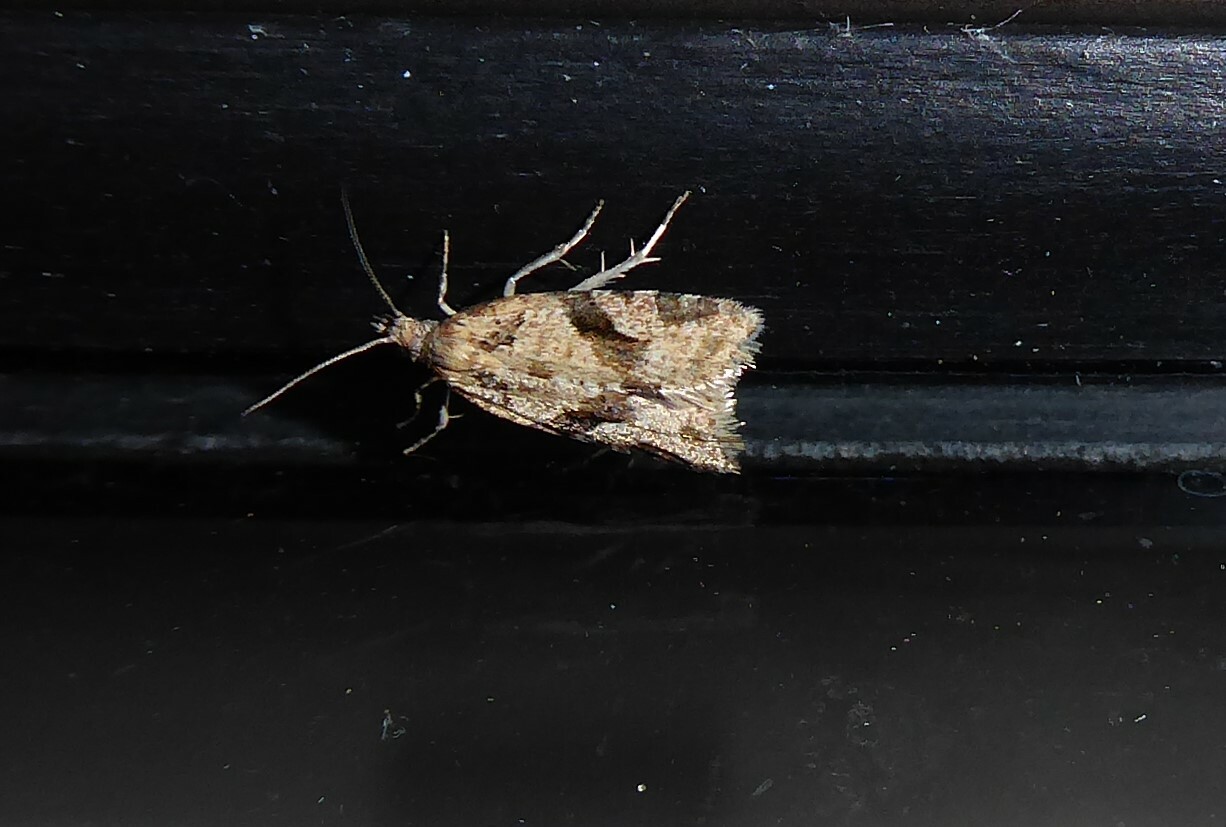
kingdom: Animalia
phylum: Arthropoda
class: Insecta
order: Lepidoptera
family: Tortricidae
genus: Capua
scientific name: Capua semiferana
